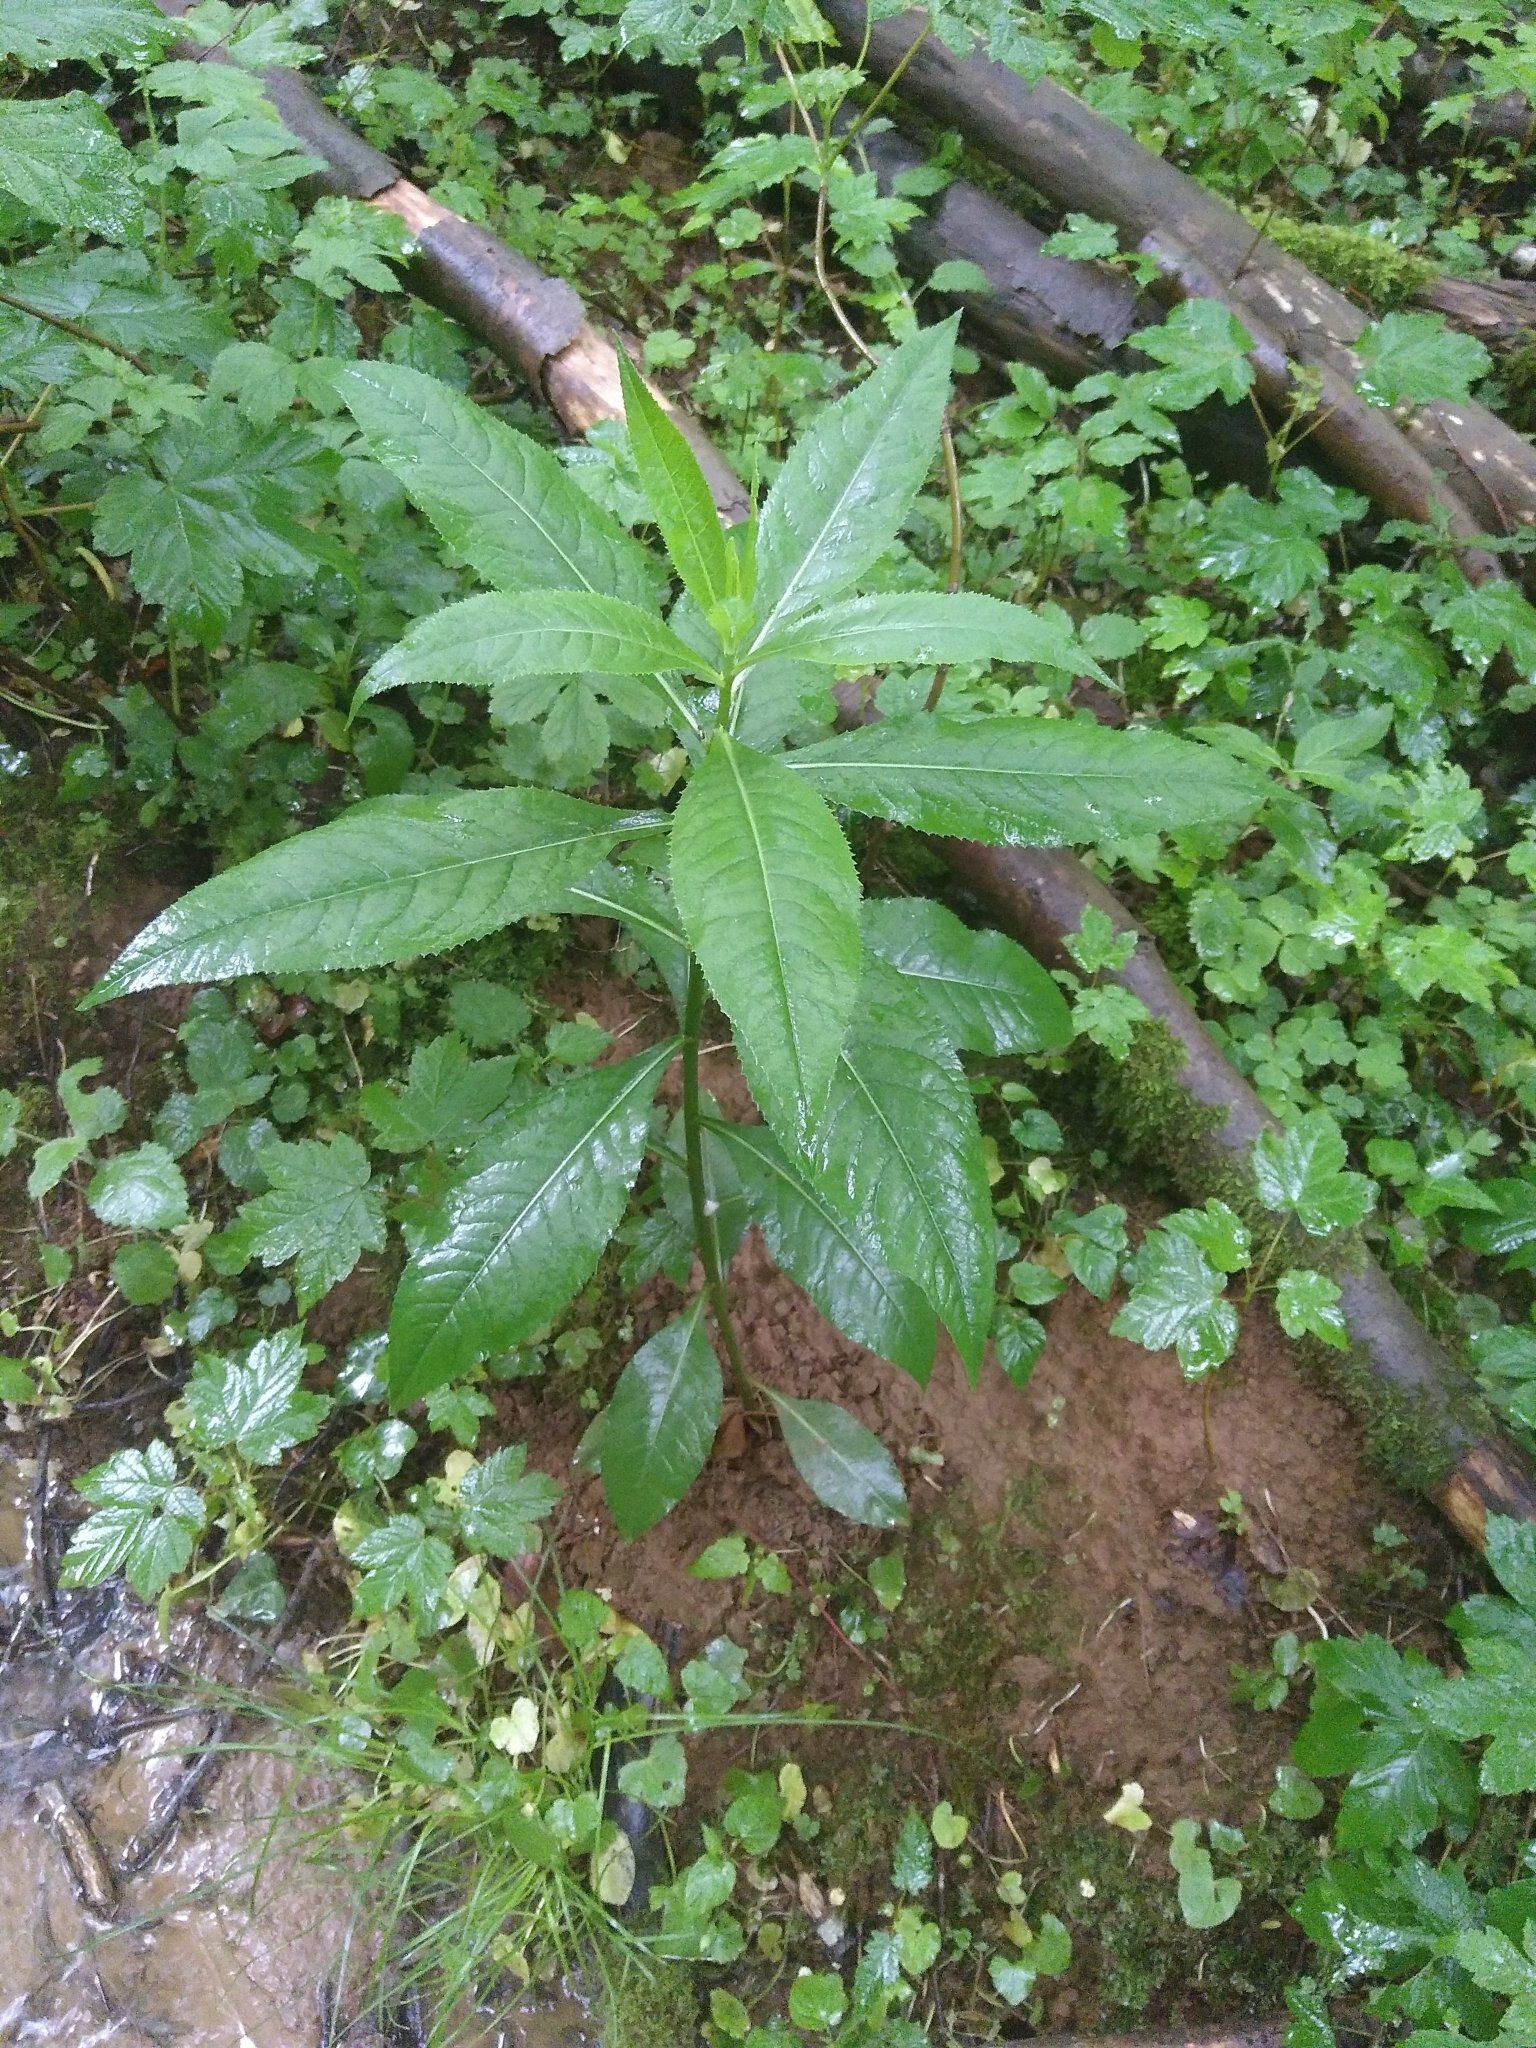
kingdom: Plantae
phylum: Tracheophyta
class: Magnoliopsida
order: Malpighiales
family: Euphorbiaceae
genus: Mercurialis
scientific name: Mercurialis perennis
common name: Dog mercury
